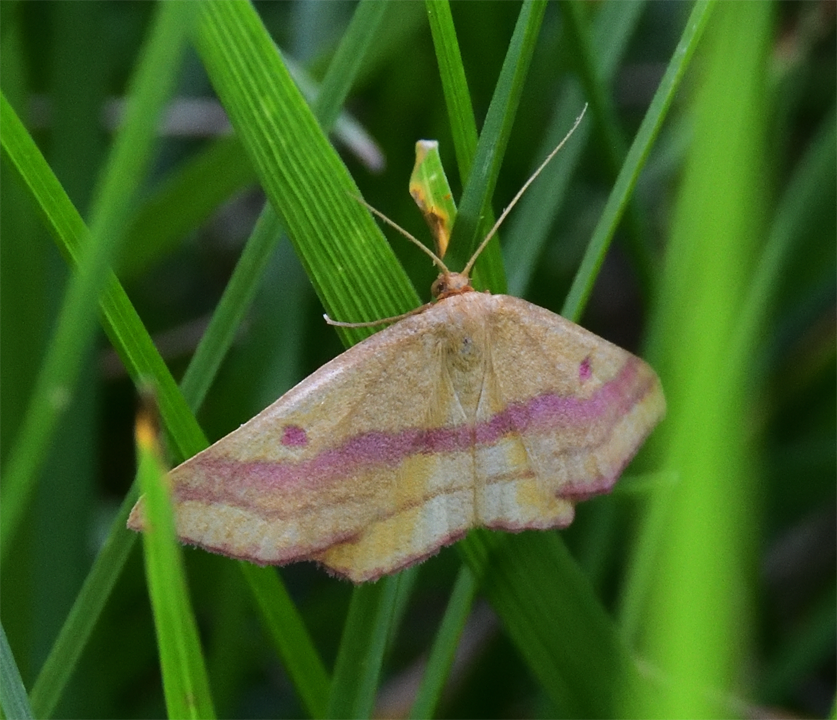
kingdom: Animalia
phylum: Arthropoda
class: Insecta
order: Lepidoptera
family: Geometridae
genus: Haematopis
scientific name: Haematopis grataria
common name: Chickweed geometer
